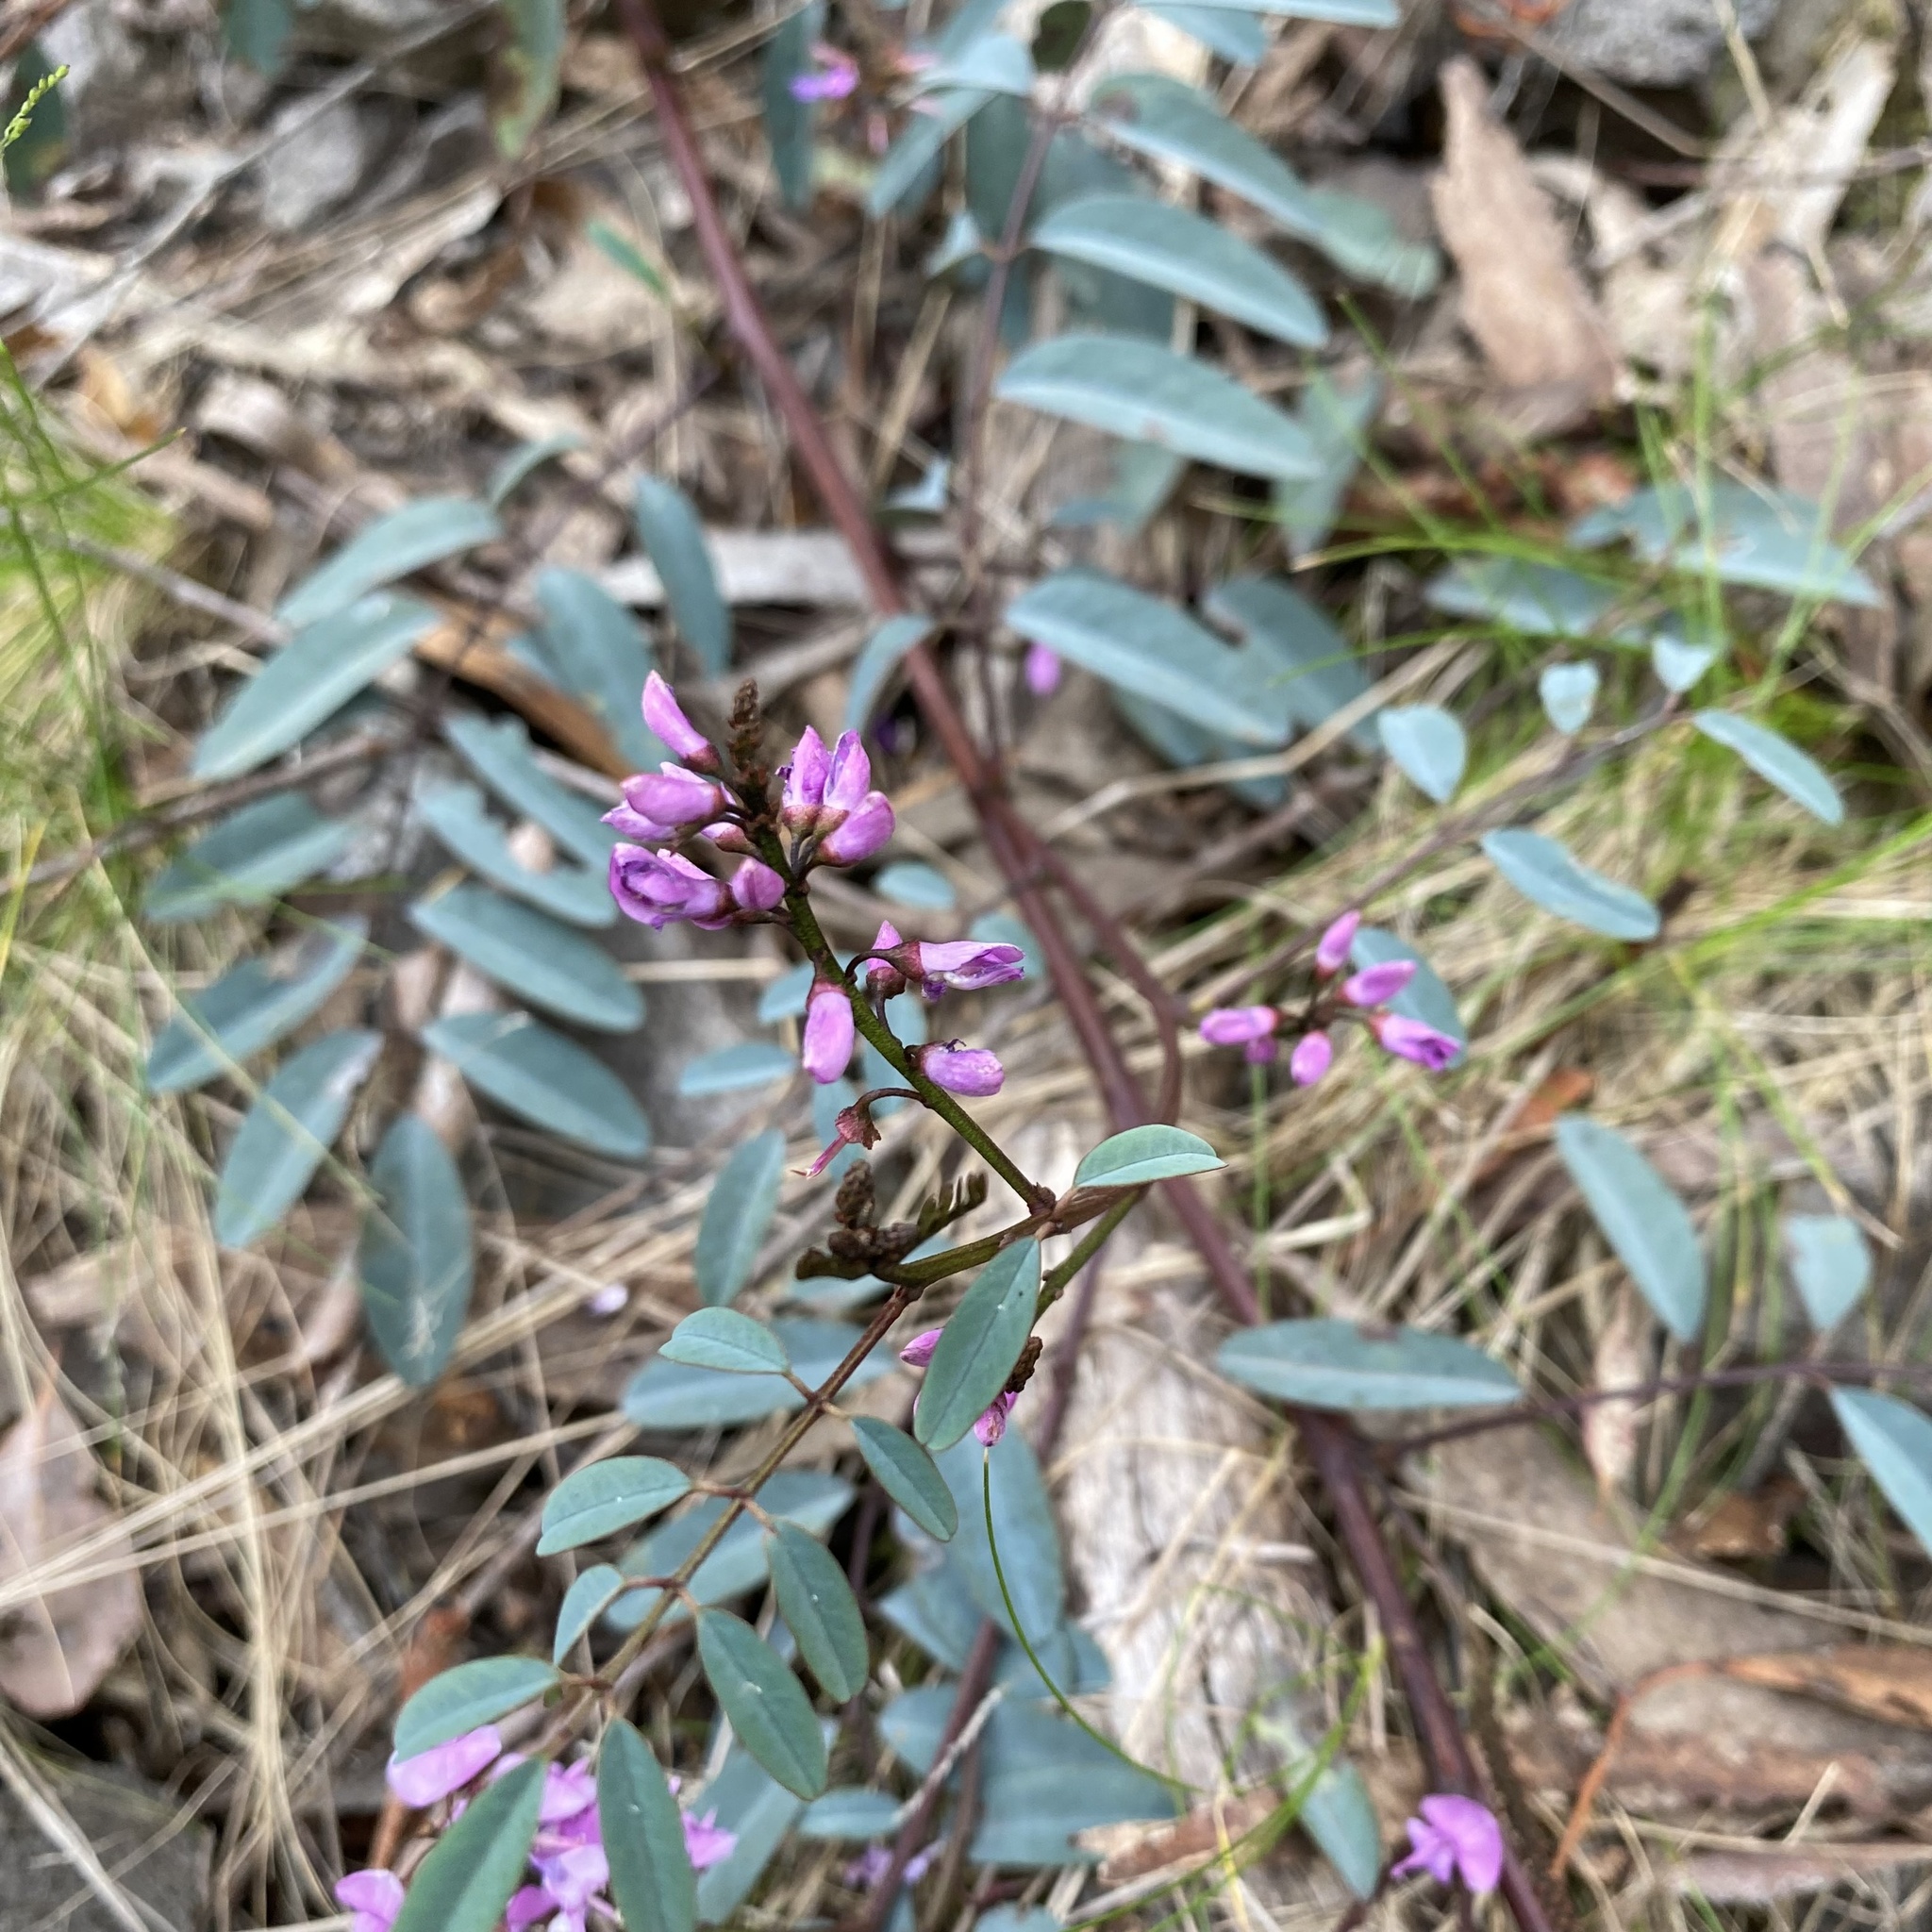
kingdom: Plantae
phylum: Tracheophyta
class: Magnoliopsida
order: Fabales
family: Fabaceae
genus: Indigofera
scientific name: Indigofera australis
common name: Australian indigo
